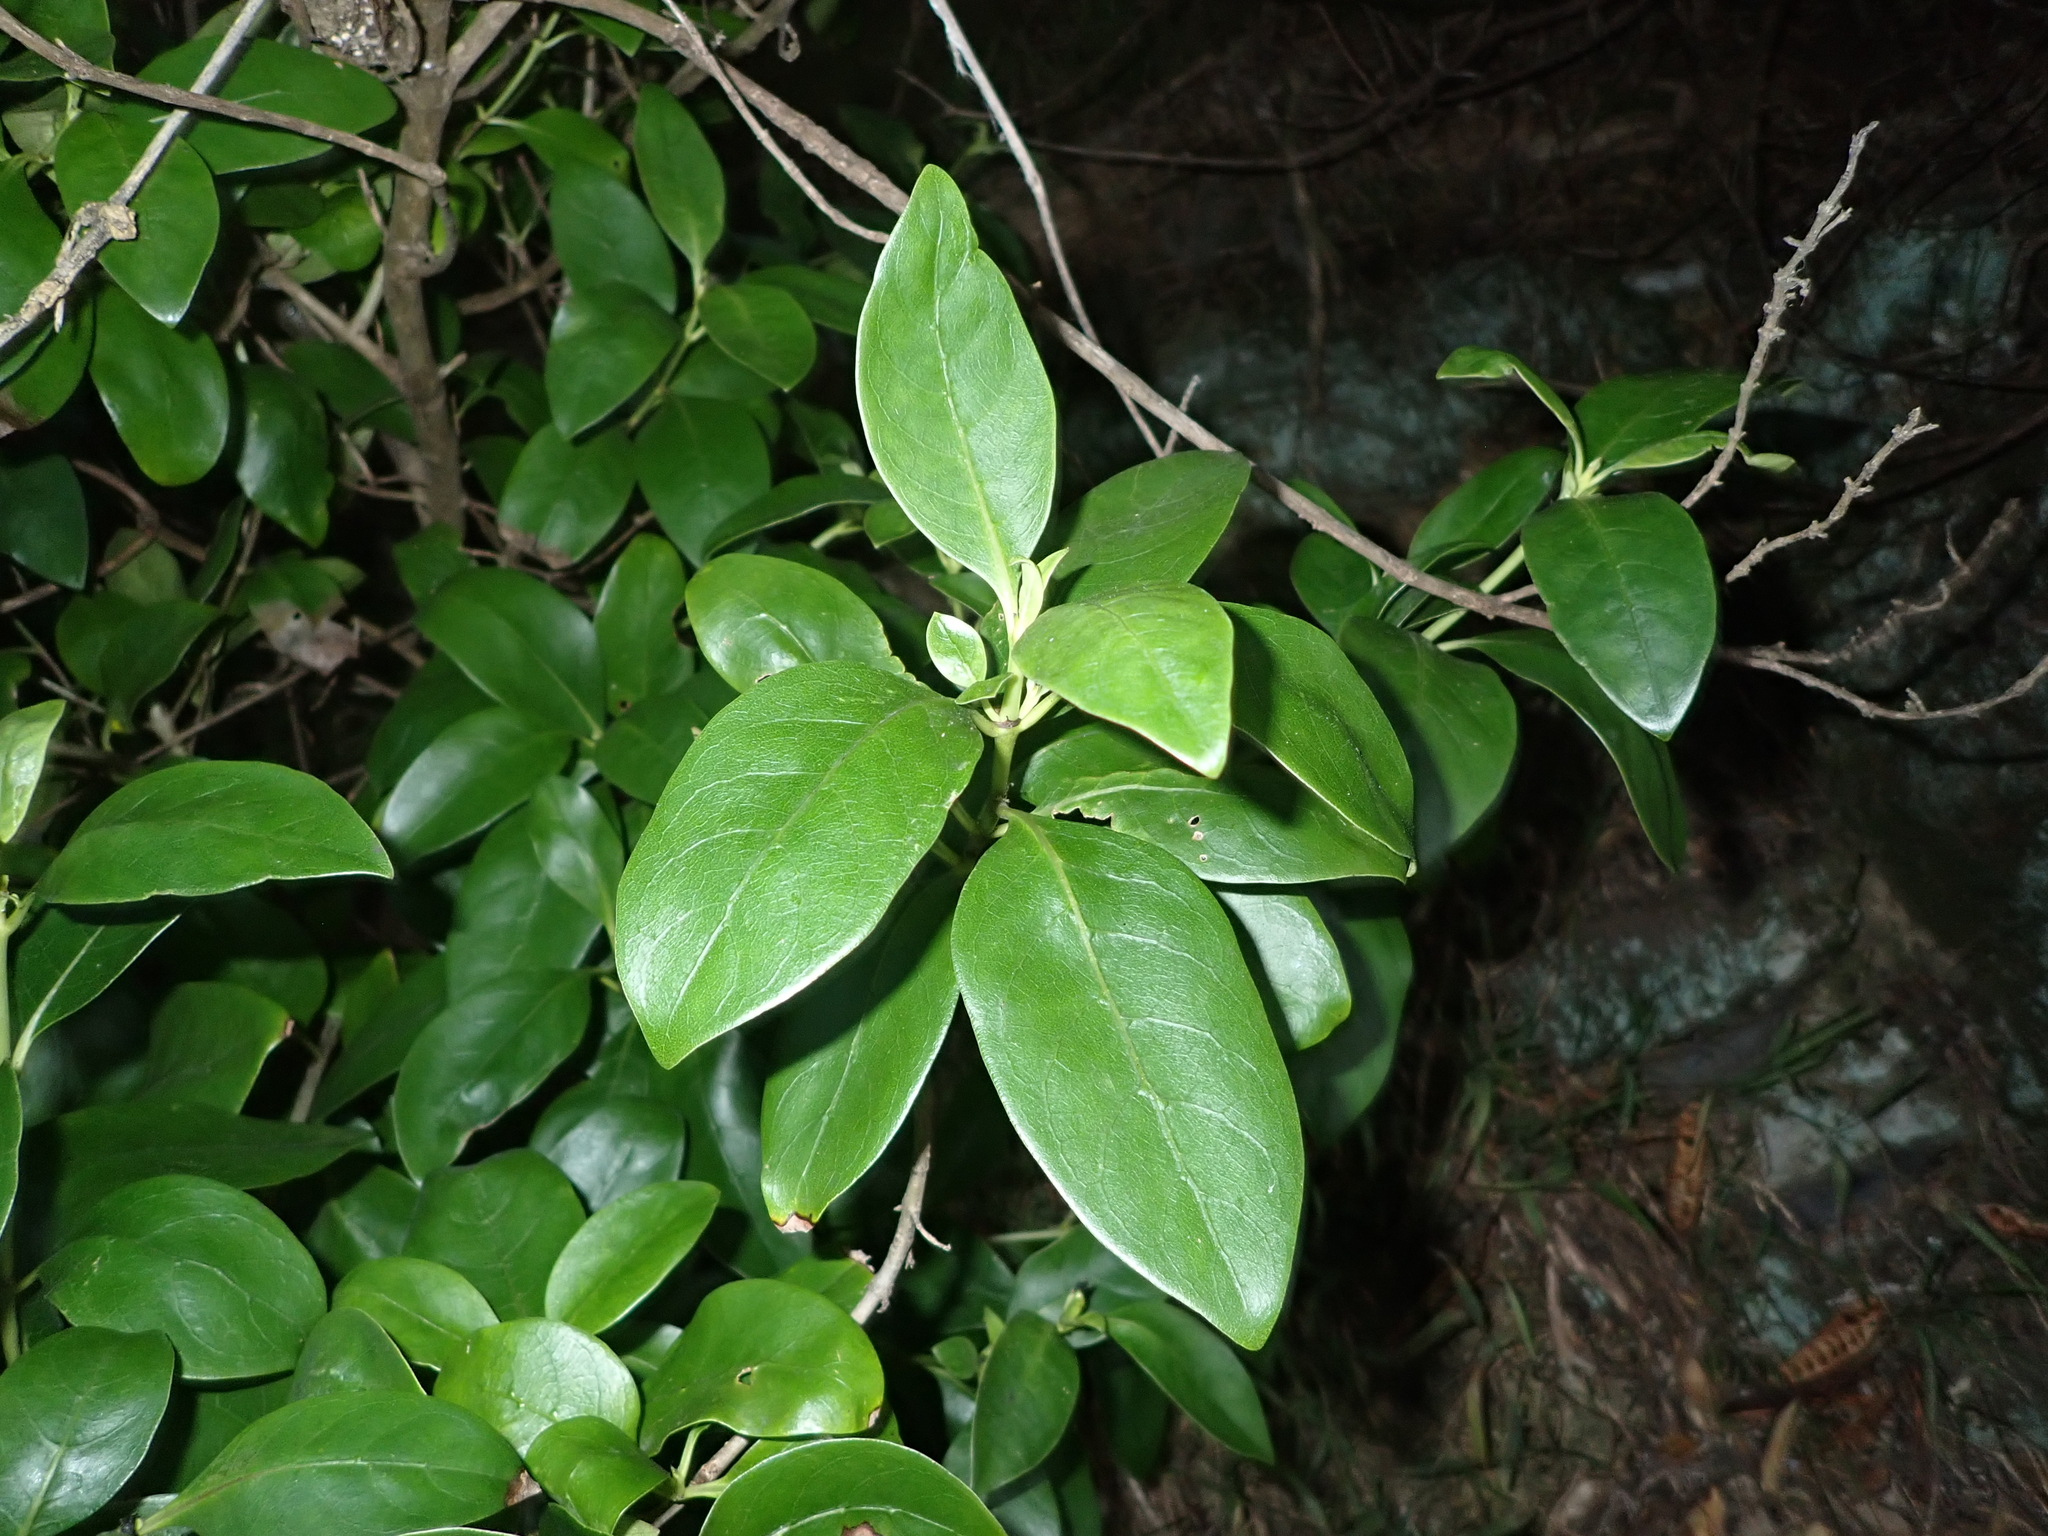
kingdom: Plantae
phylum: Tracheophyta
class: Magnoliopsida
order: Gentianales
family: Rubiaceae
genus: Coprosma
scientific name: Coprosma robusta
